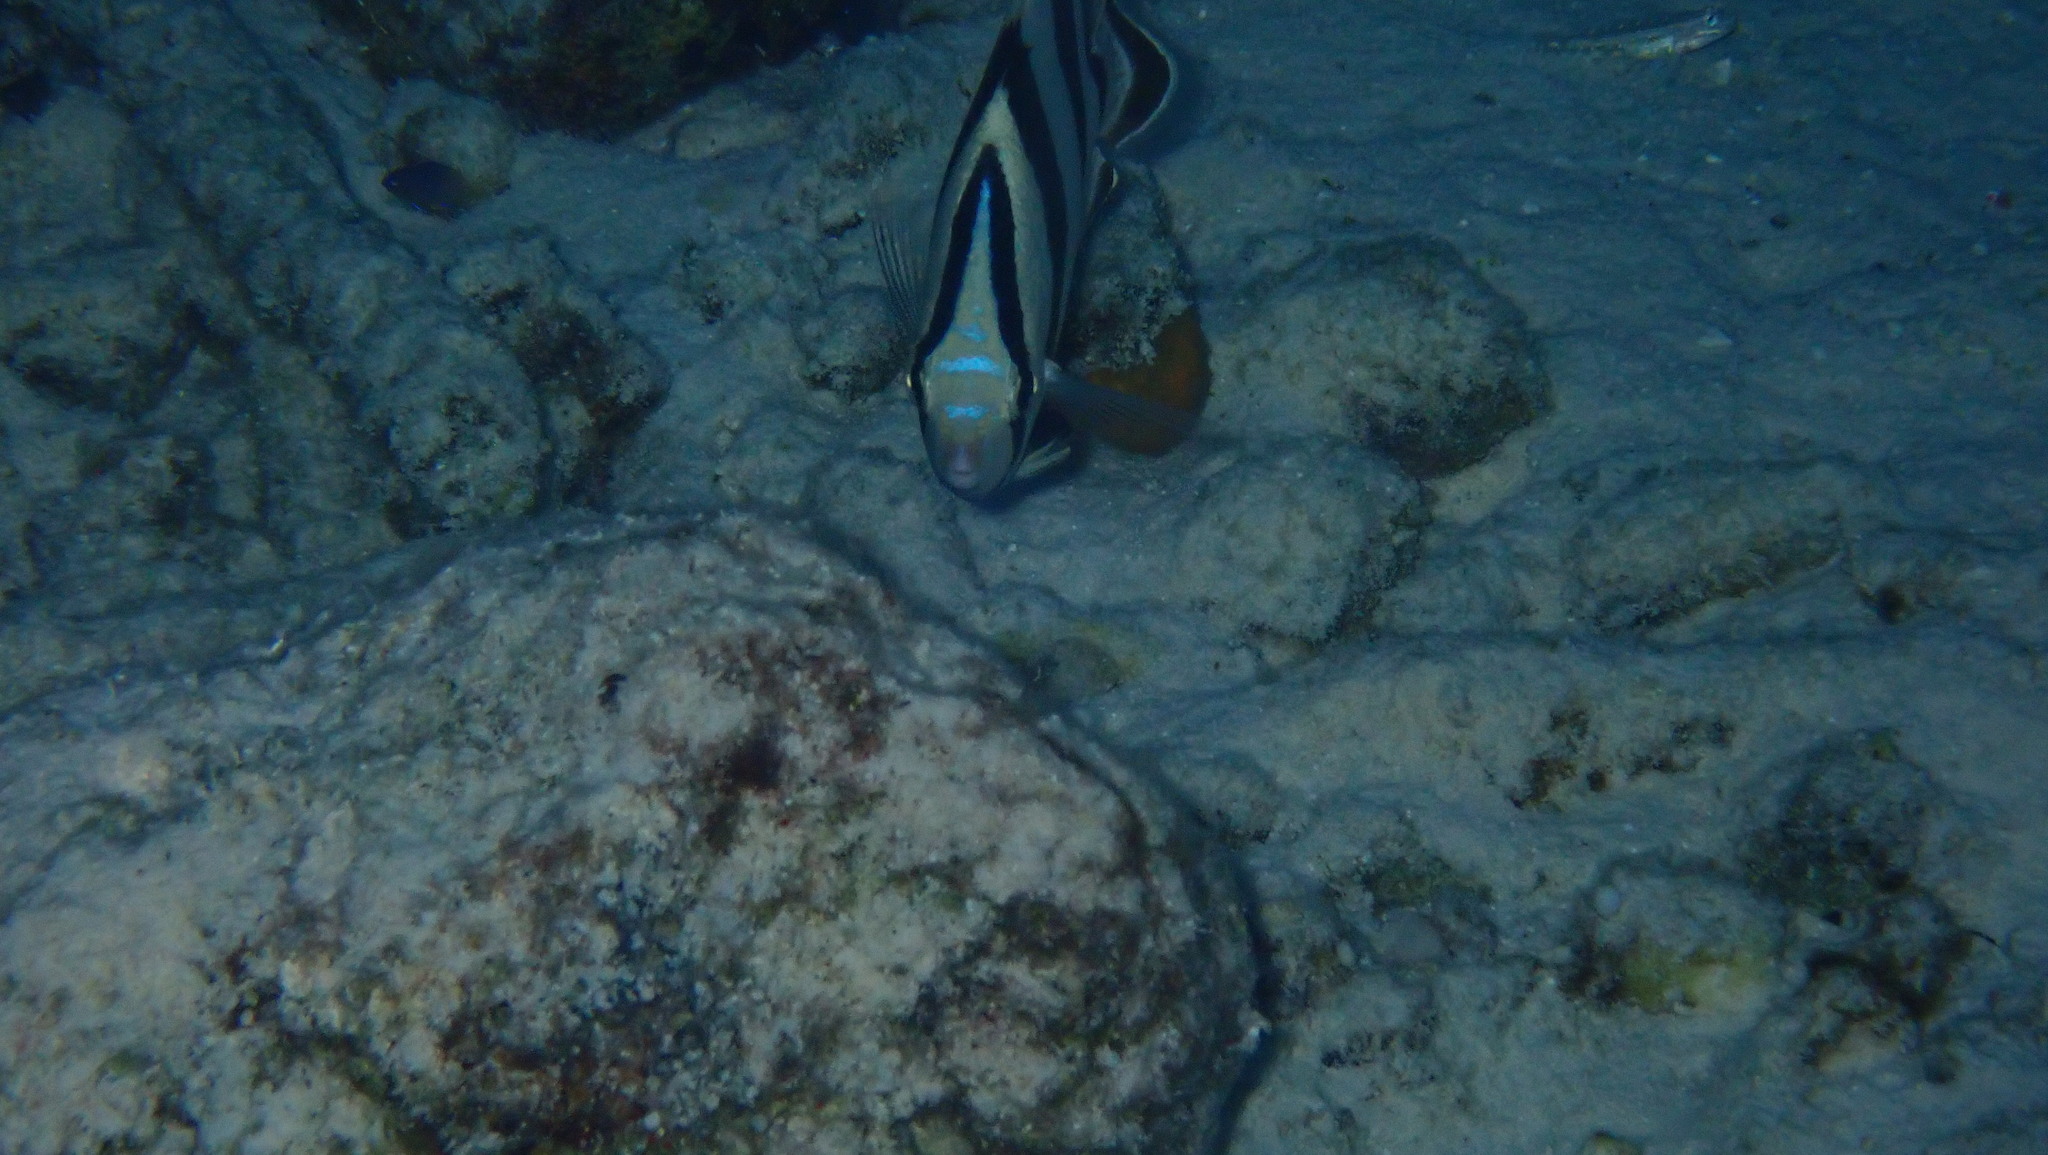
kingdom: Animalia
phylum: Chordata
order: Perciformes
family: Chaetodontidae
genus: Chaetodon
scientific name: Chaetodon striatus
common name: Banded butterflyfish
